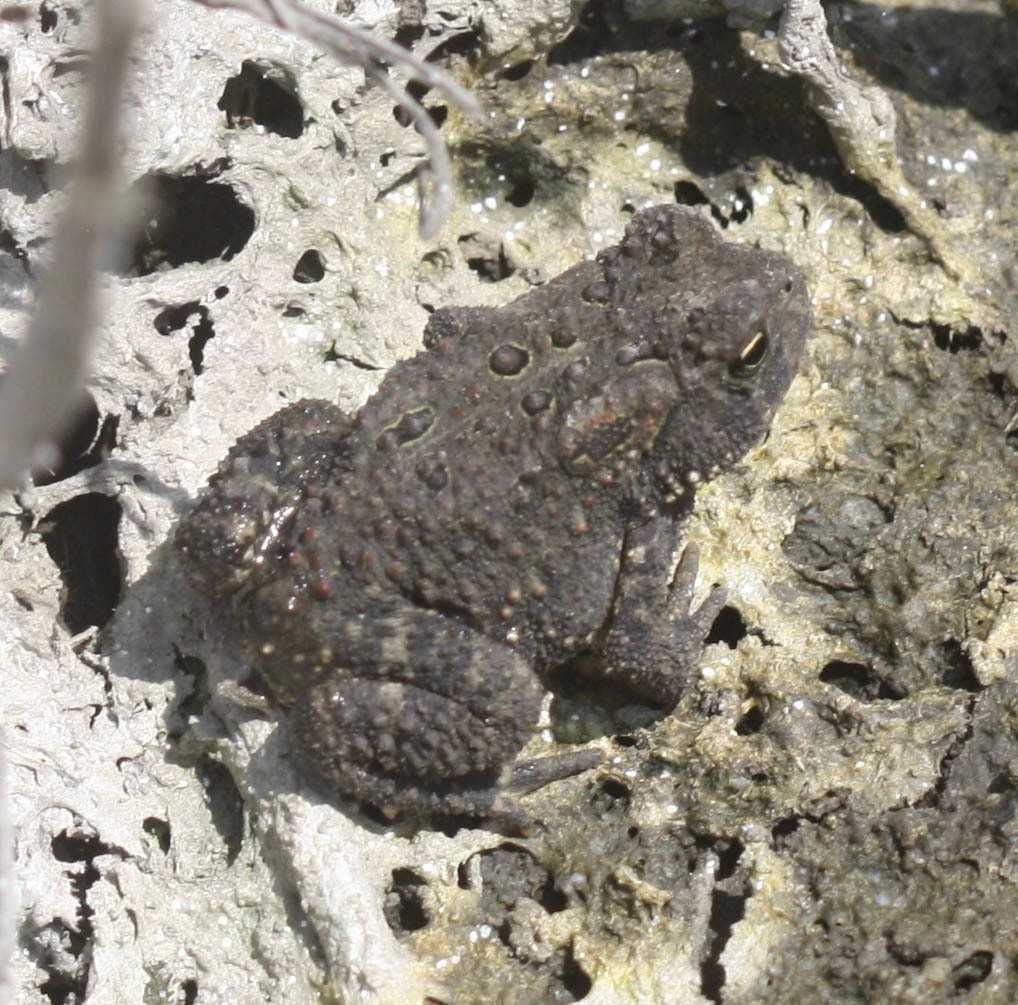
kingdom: Animalia
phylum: Chordata
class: Amphibia
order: Anura
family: Bufonidae
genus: Anaxyrus
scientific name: Anaxyrus americanus
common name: American toad
